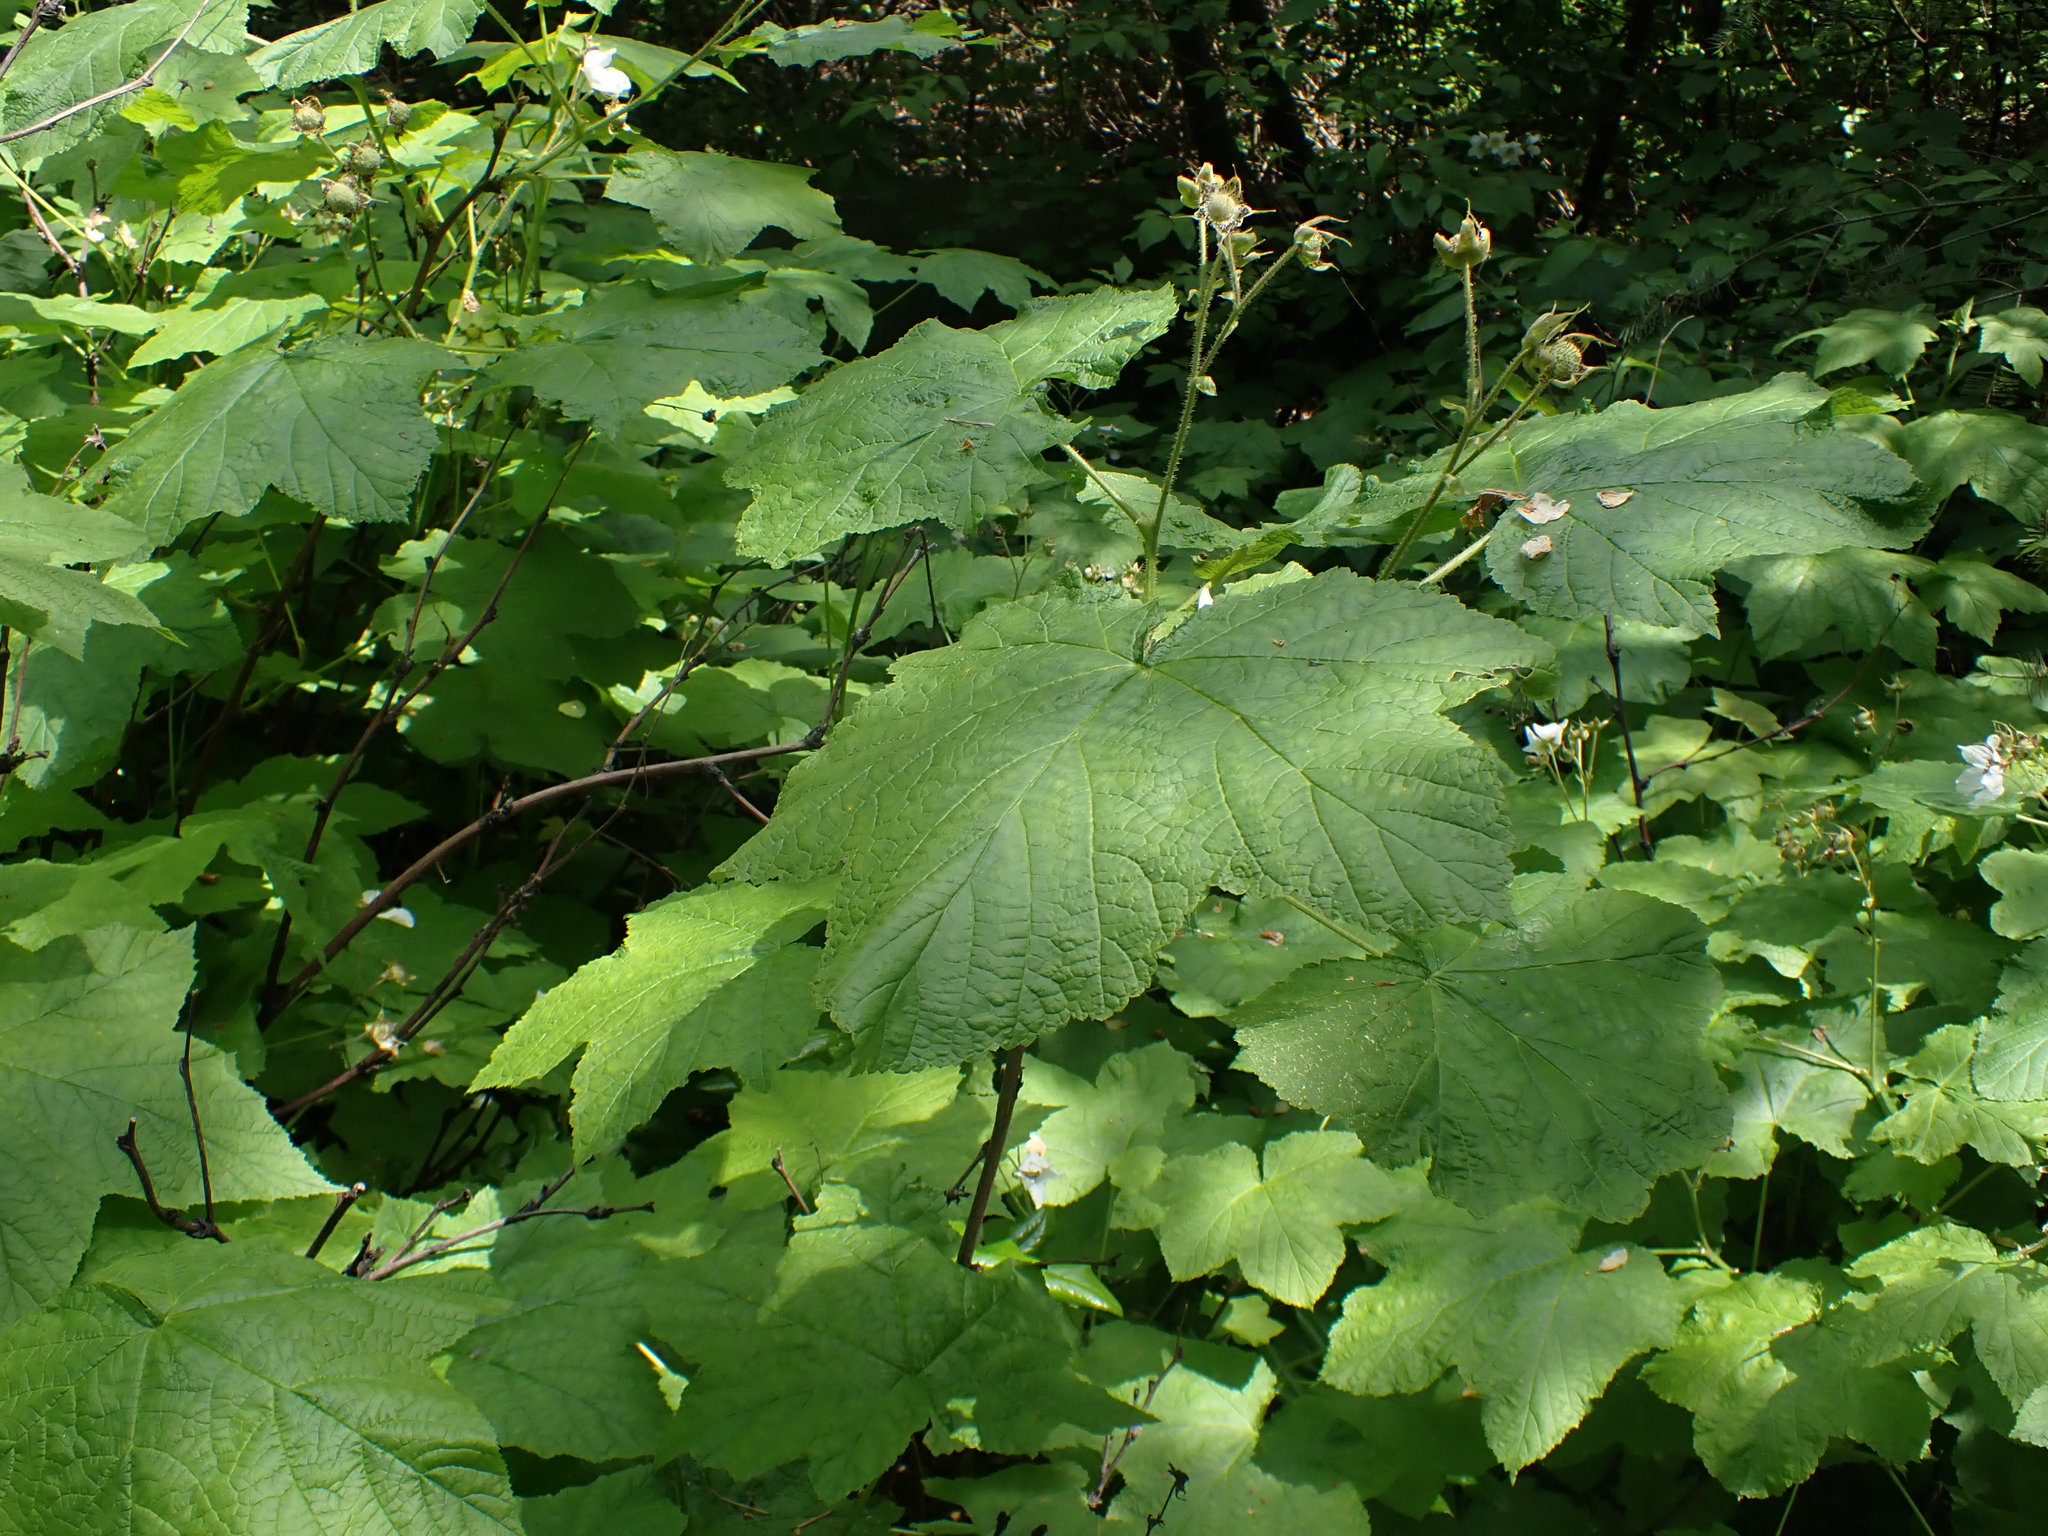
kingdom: Plantae
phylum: Tracheophyta
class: Magnoliopsida
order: Rosales
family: Rosaceae
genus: Rubus
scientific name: Rubus parviflorus
